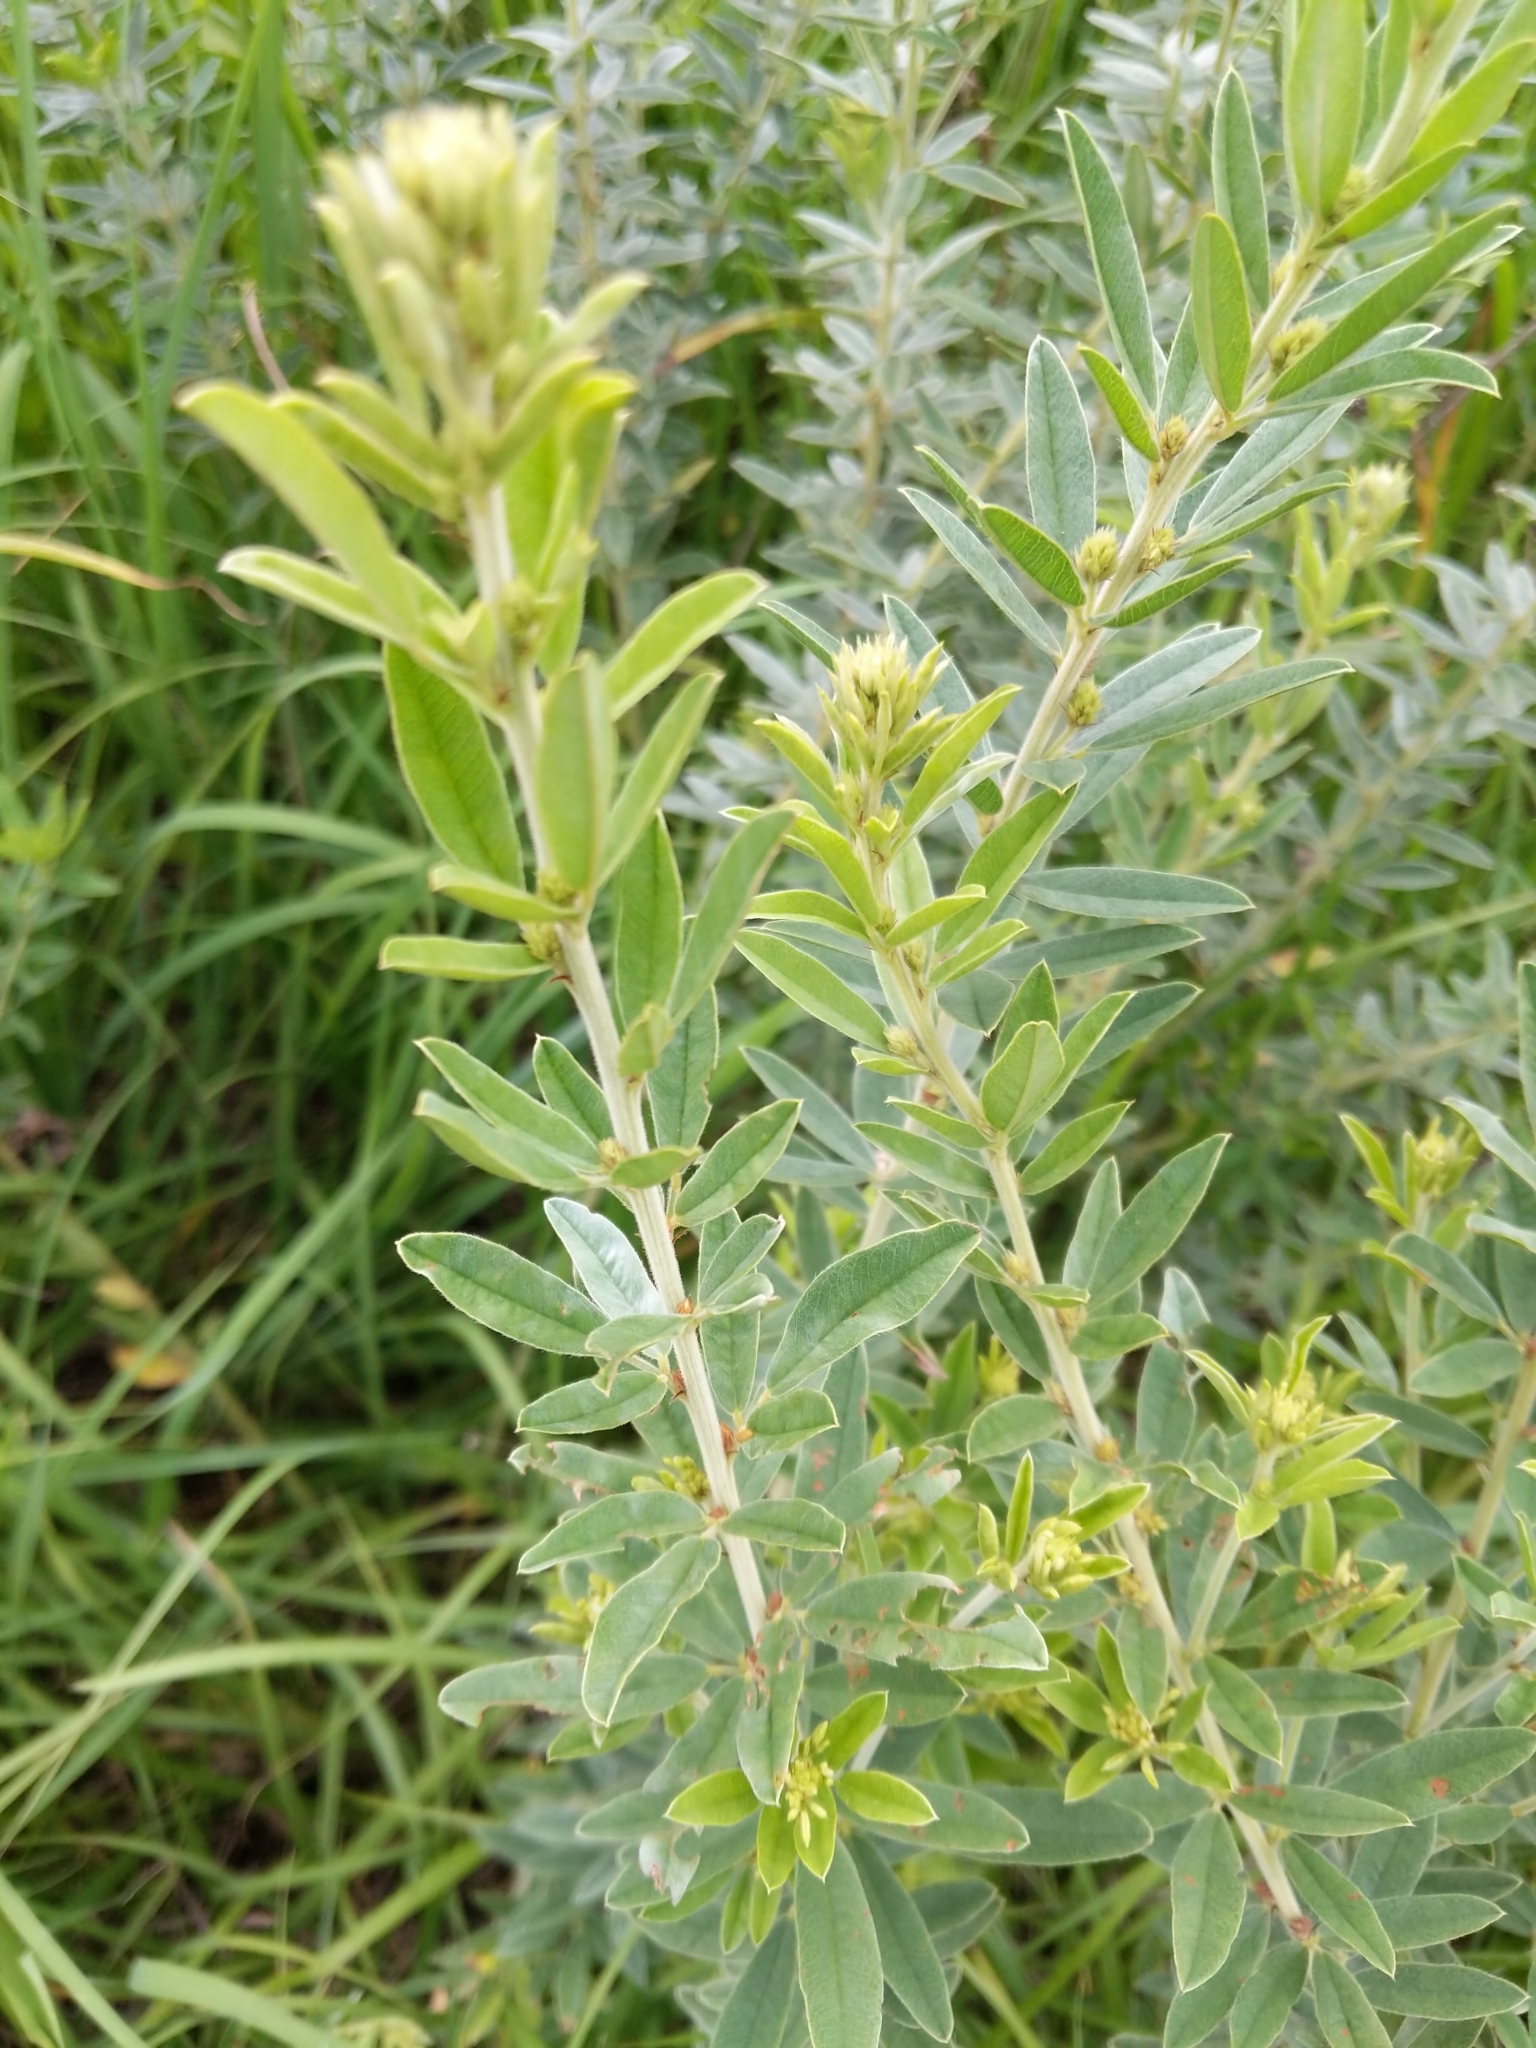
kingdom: Plantae
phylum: Tracheophyta
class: Magnoliopsida
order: Fabales
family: Fabaceae
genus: Lespedeza
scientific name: Lespedeza capitata
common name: Dusty clover
